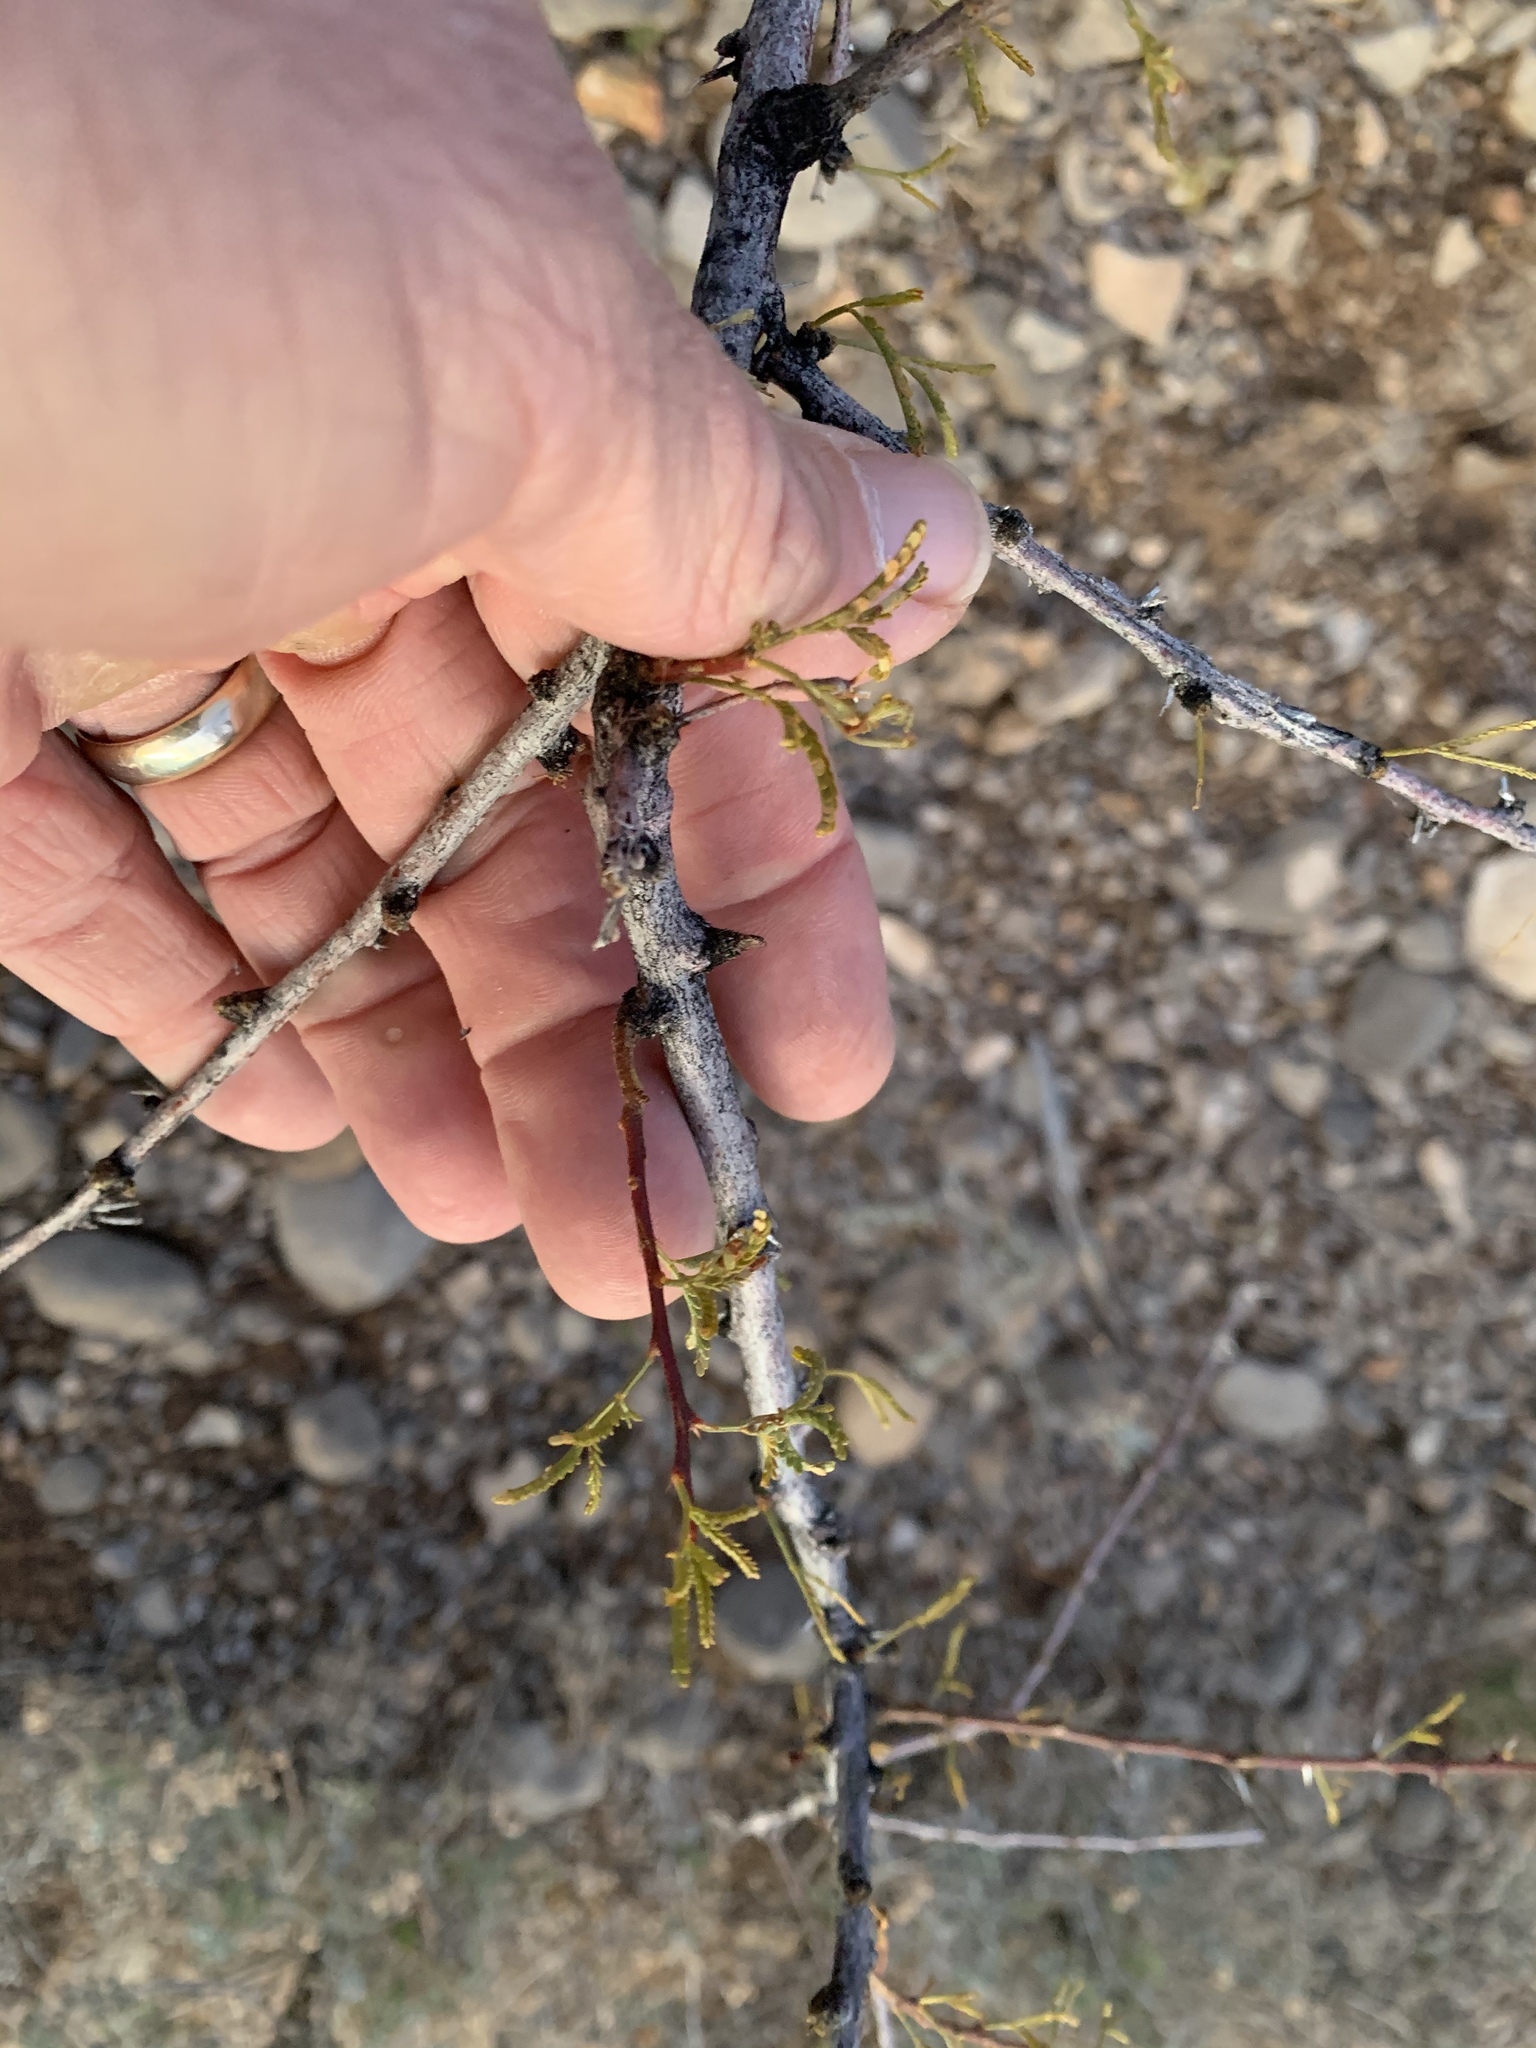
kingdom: Plantae
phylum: Tracheophyta
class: Magnoliopsida
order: Fabales
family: Fabaceae
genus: Vachellia
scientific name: Vachellia constricta
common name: Mescat acacia
